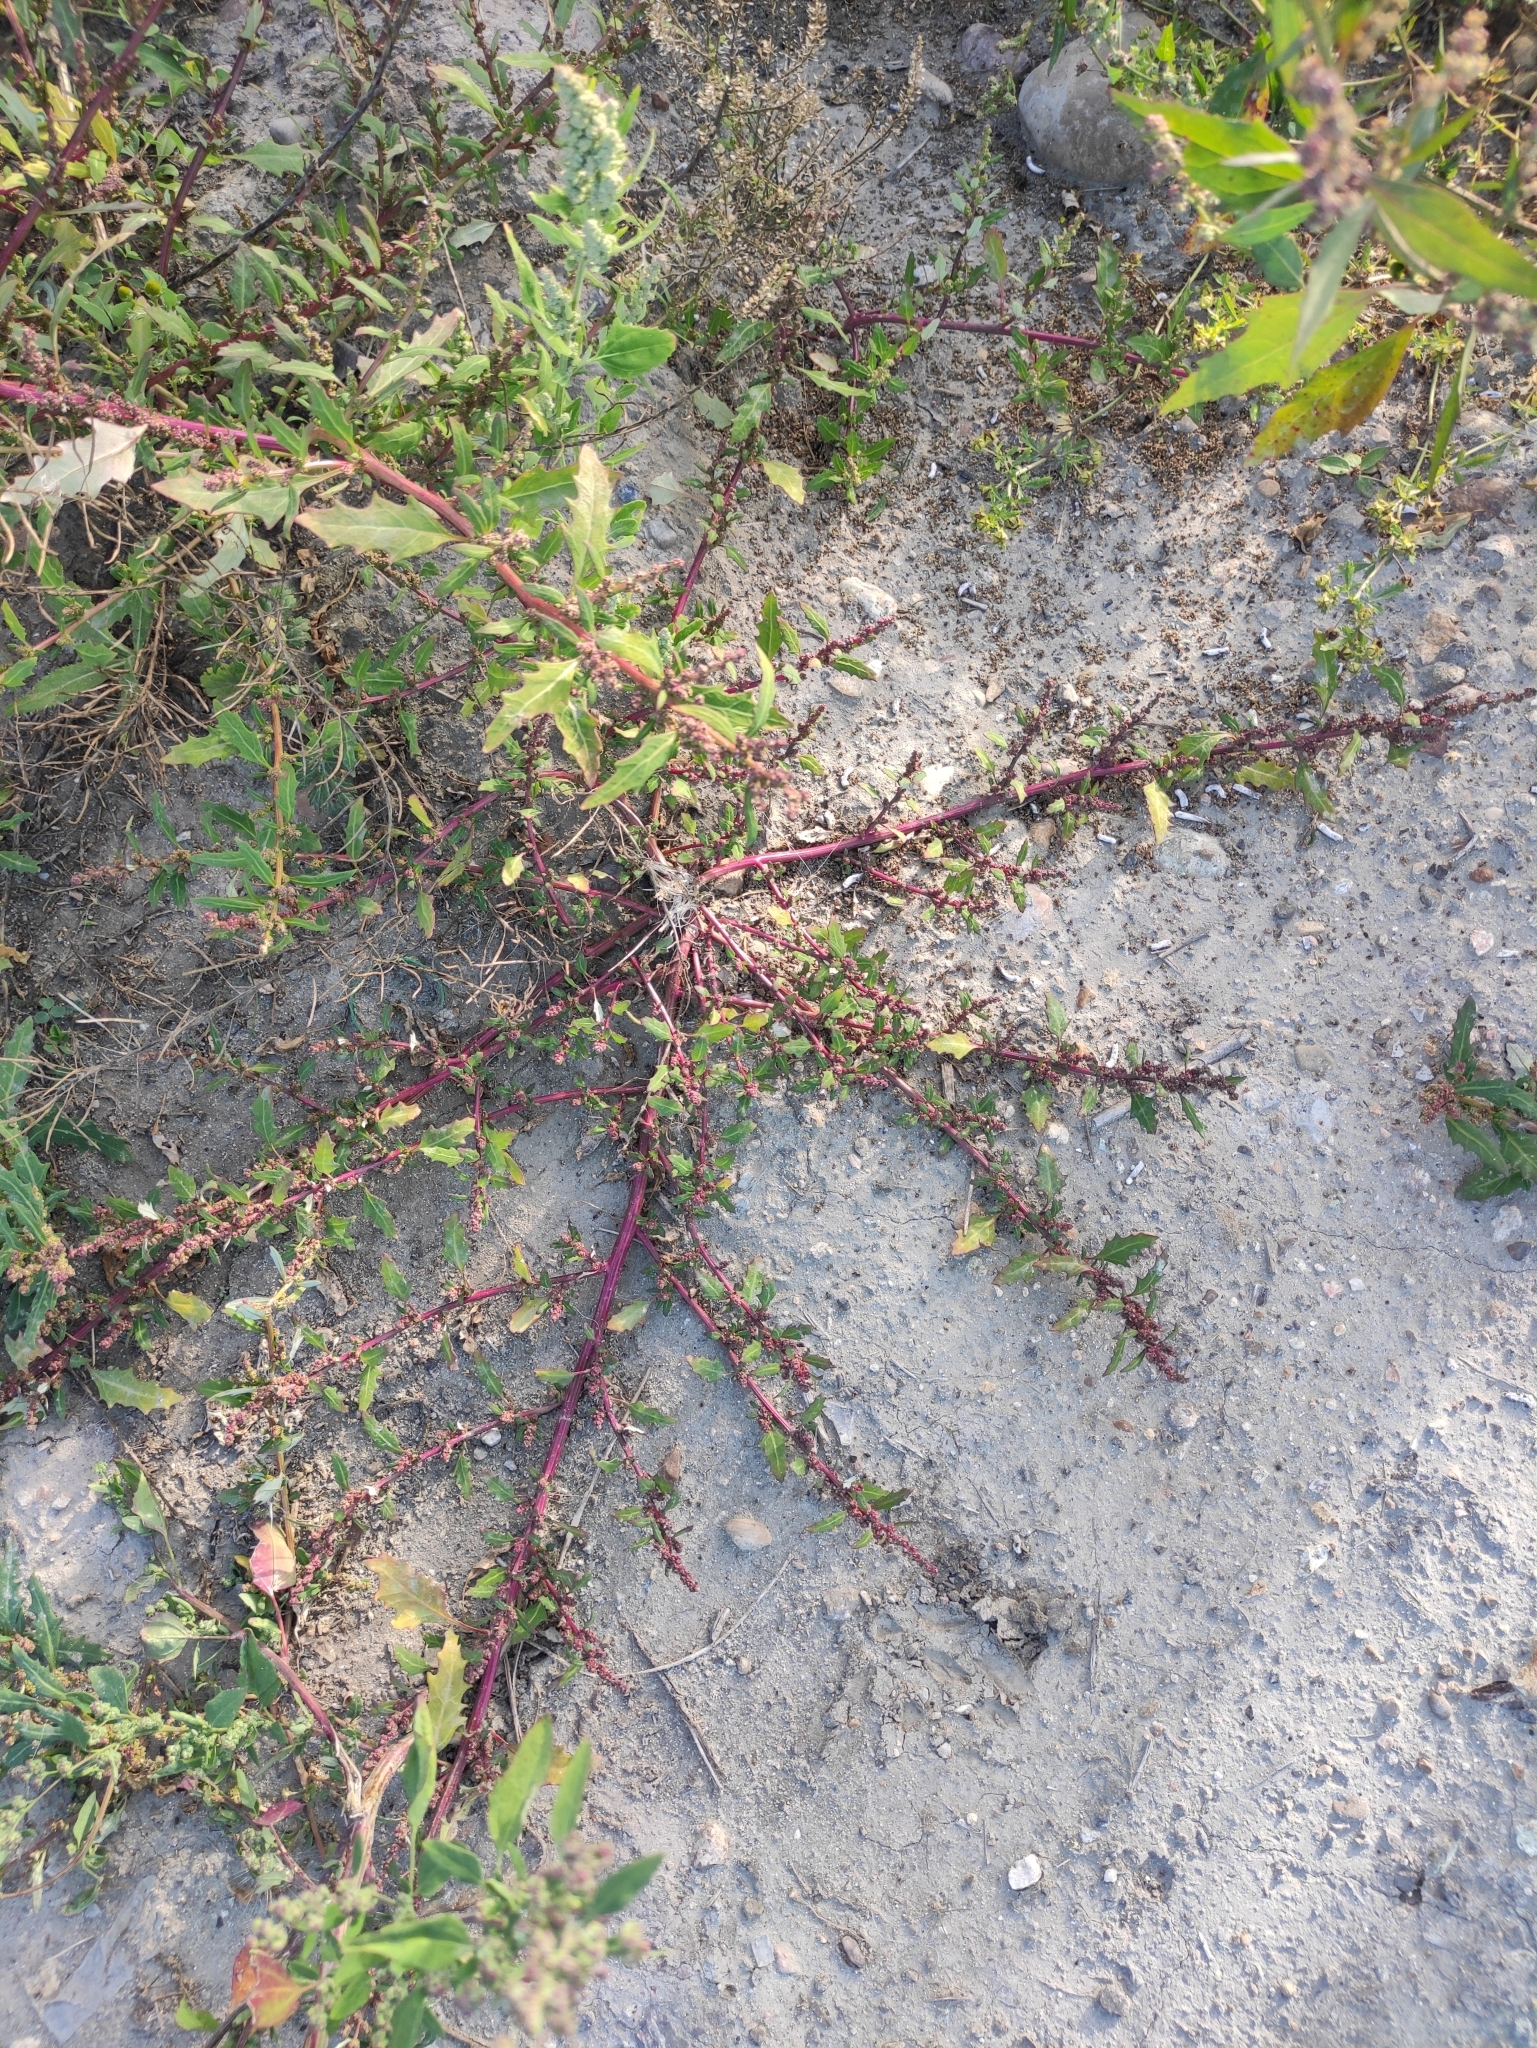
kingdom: Plantae
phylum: Tracheophyta
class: Magnoliopsida
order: Caryophyllales
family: Amaranthaceae
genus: Oxybasis
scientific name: Oxybasis glauca
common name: Glaucous goosefoot
